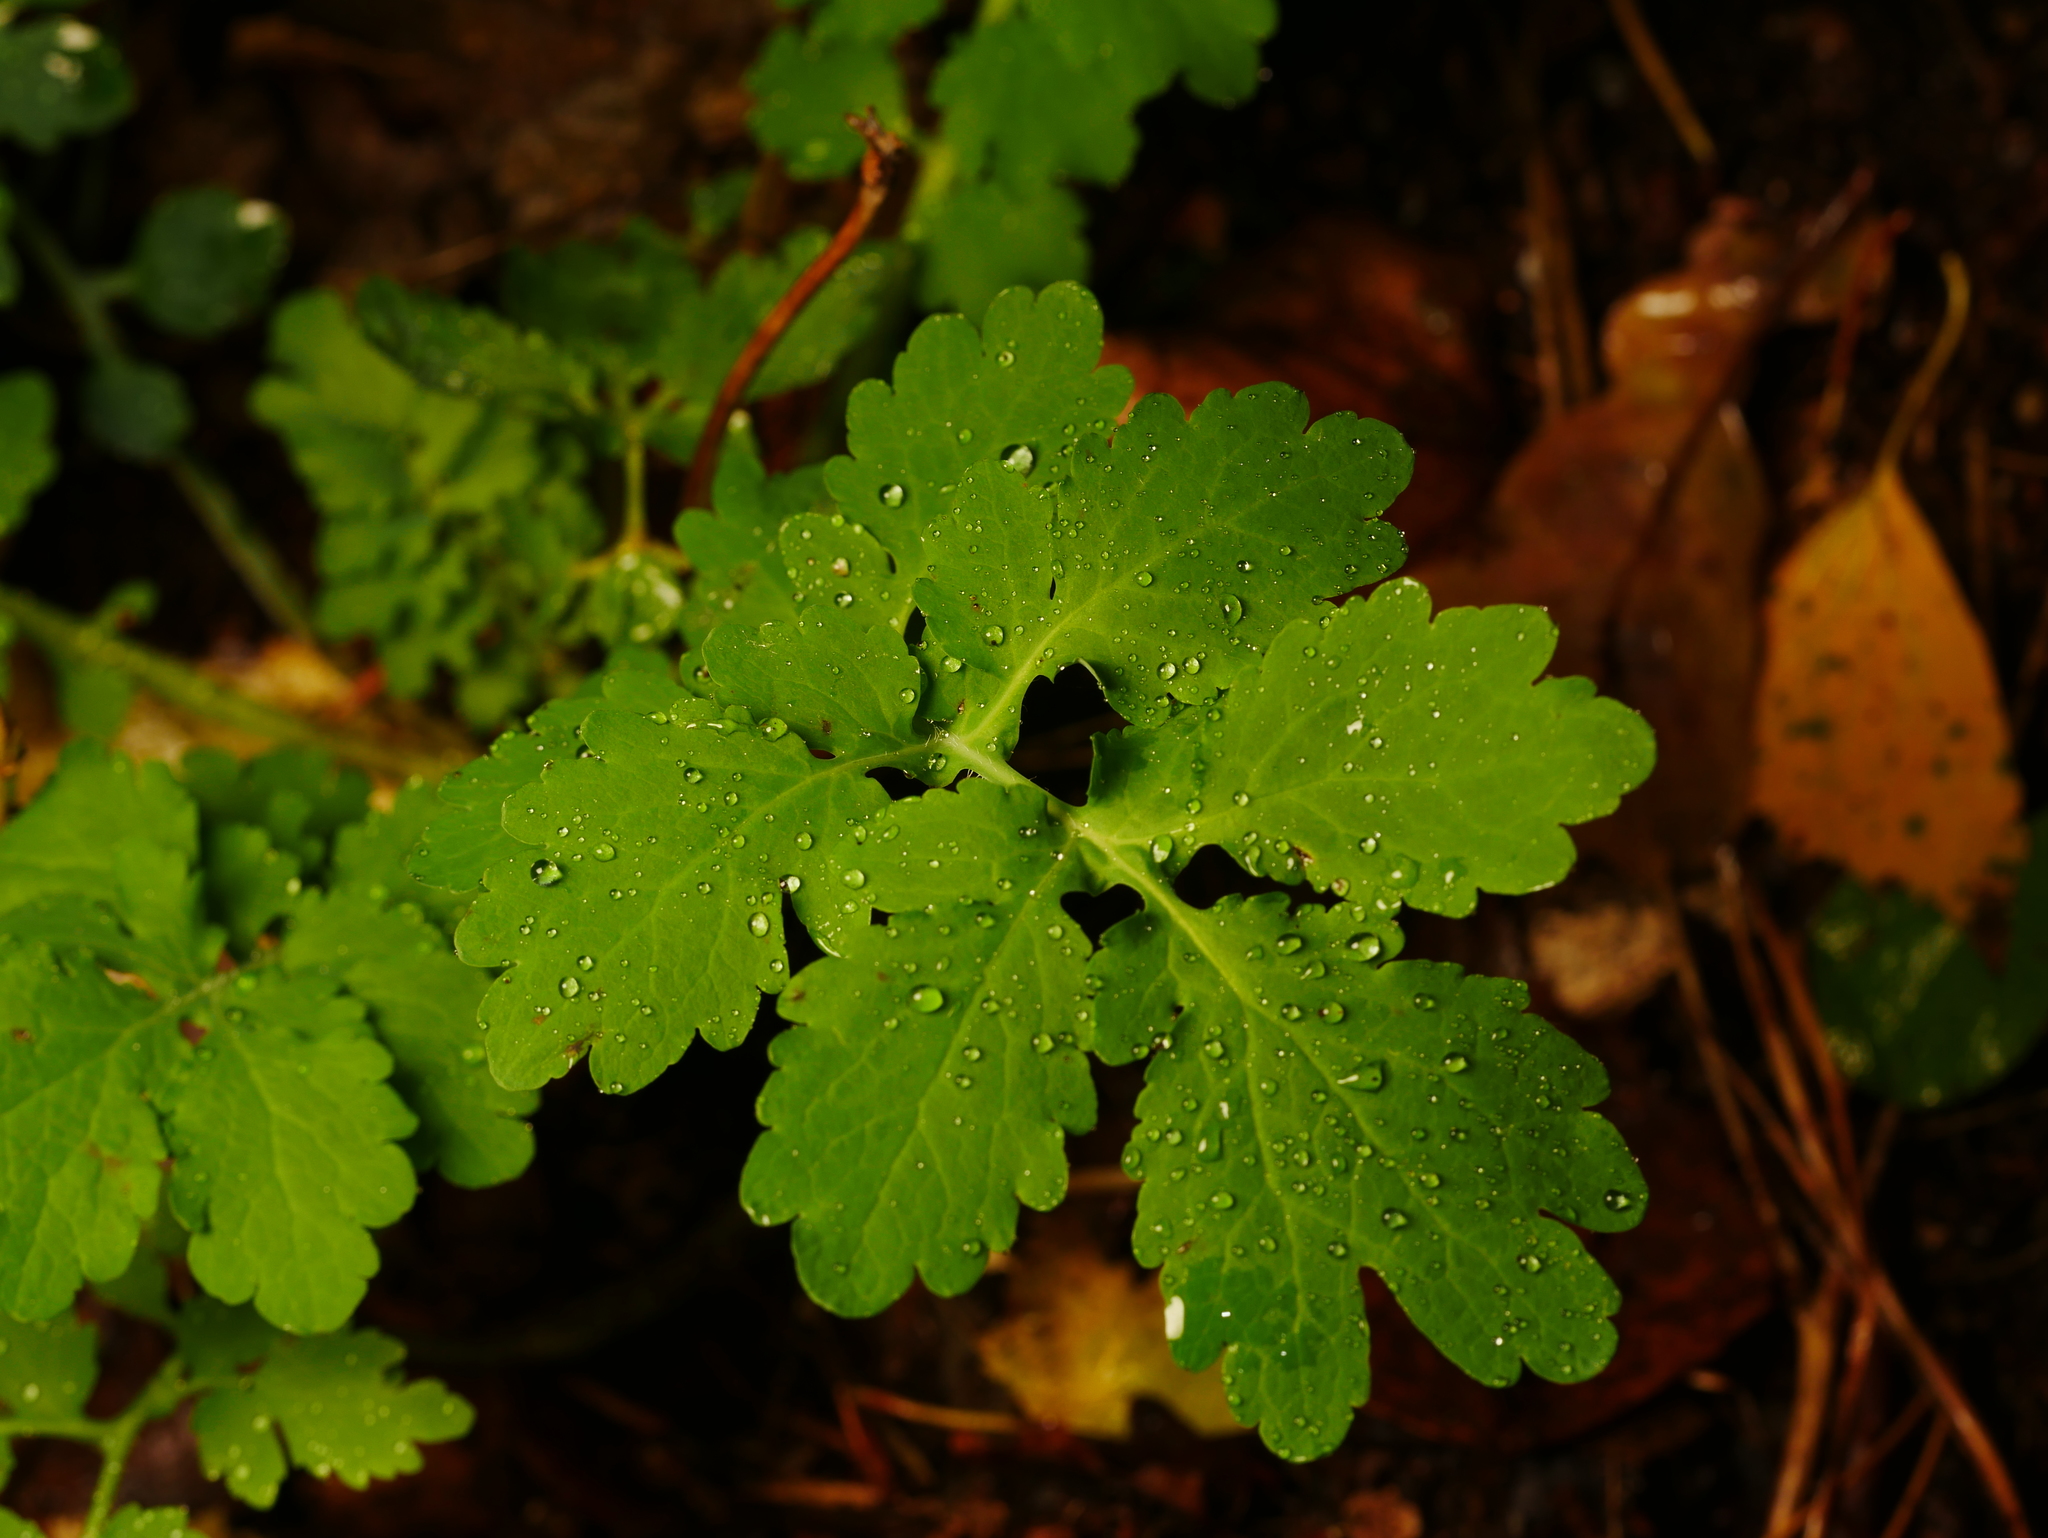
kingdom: Plantae
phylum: Tracheophyta
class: Magnoliopsida
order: Ranunculales
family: Papaveraceae
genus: Chelidonium
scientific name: Chelidonium majus
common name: Greater celandine
